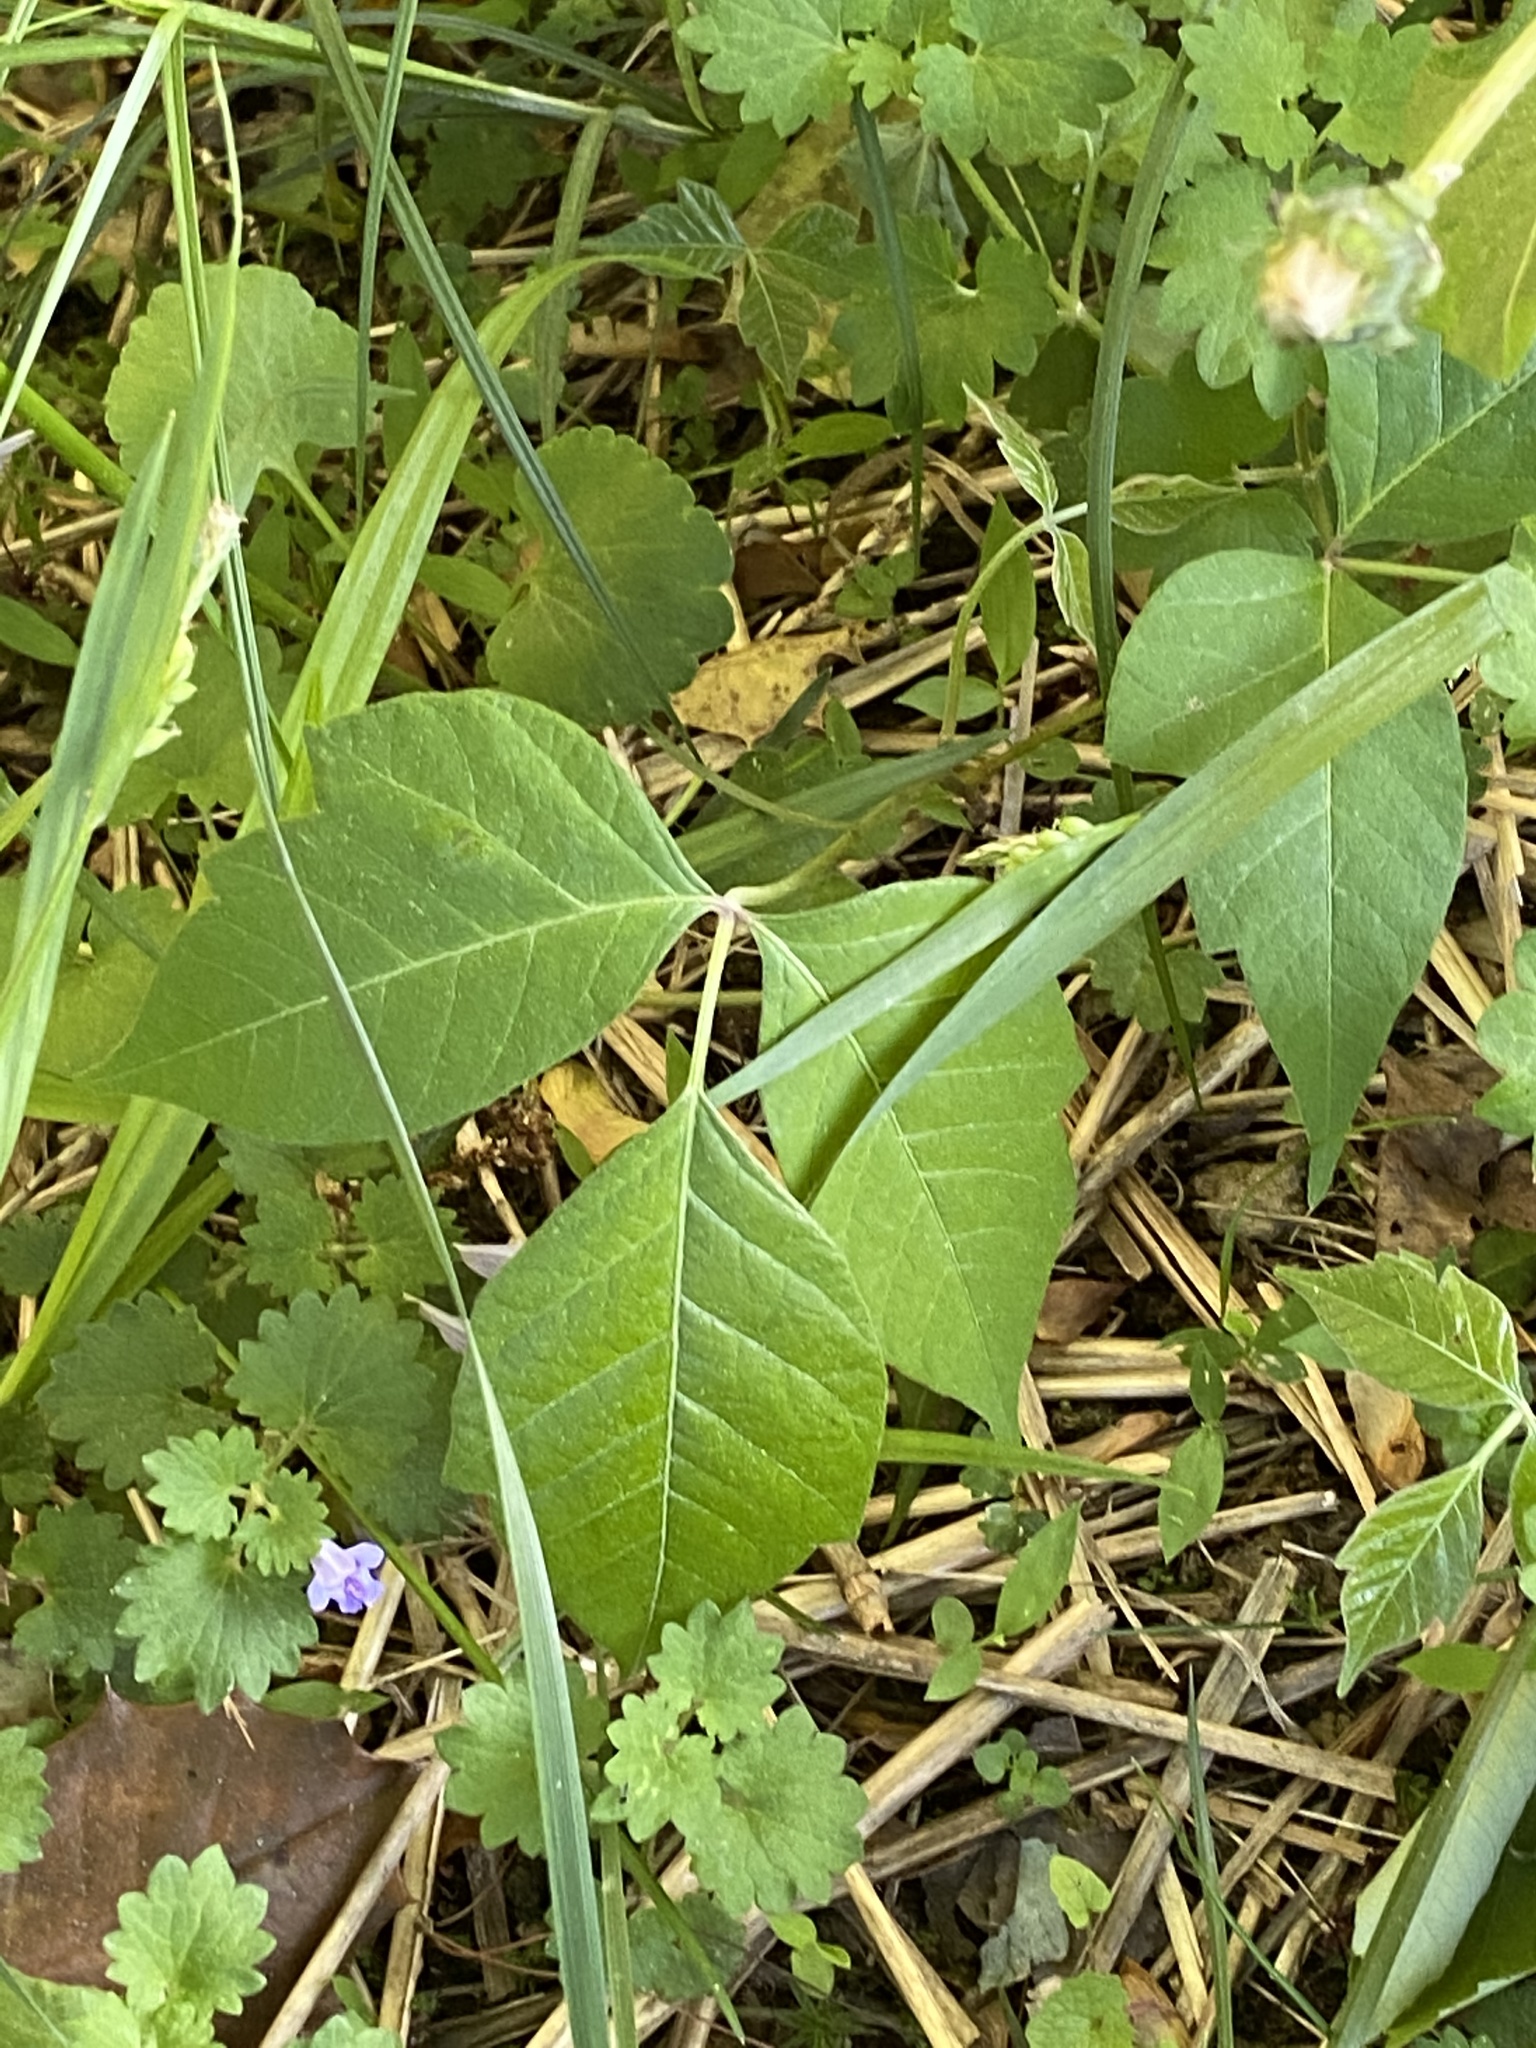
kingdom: Plantae
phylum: Tracheophyta
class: Magnoliopsida
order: Sapindales
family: Anacardiaceae
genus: Toxicodendron
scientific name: Toxicodendron radicans
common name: Poison ivy
